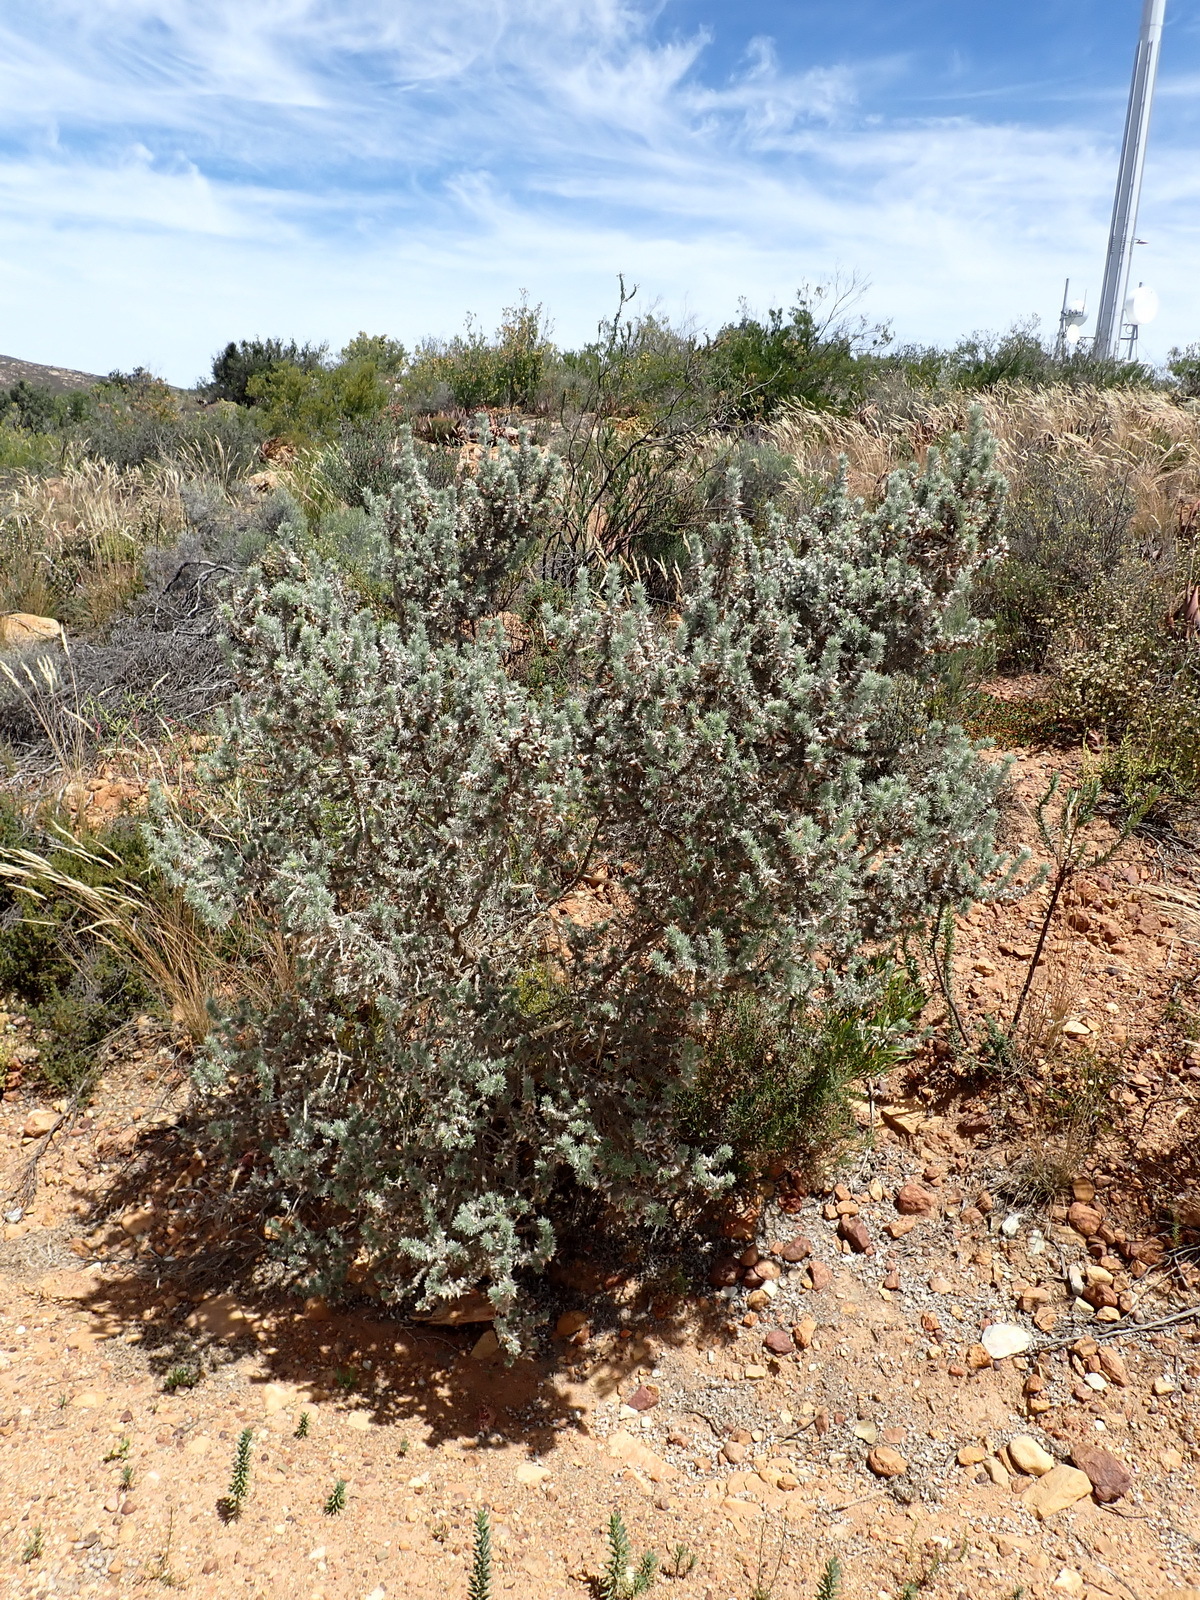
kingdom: Plantae
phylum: Tracheophyta
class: Magnoliopsida
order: Fabales
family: Fabaceae
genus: Aspalathus
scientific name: Aspalathus hystrix
